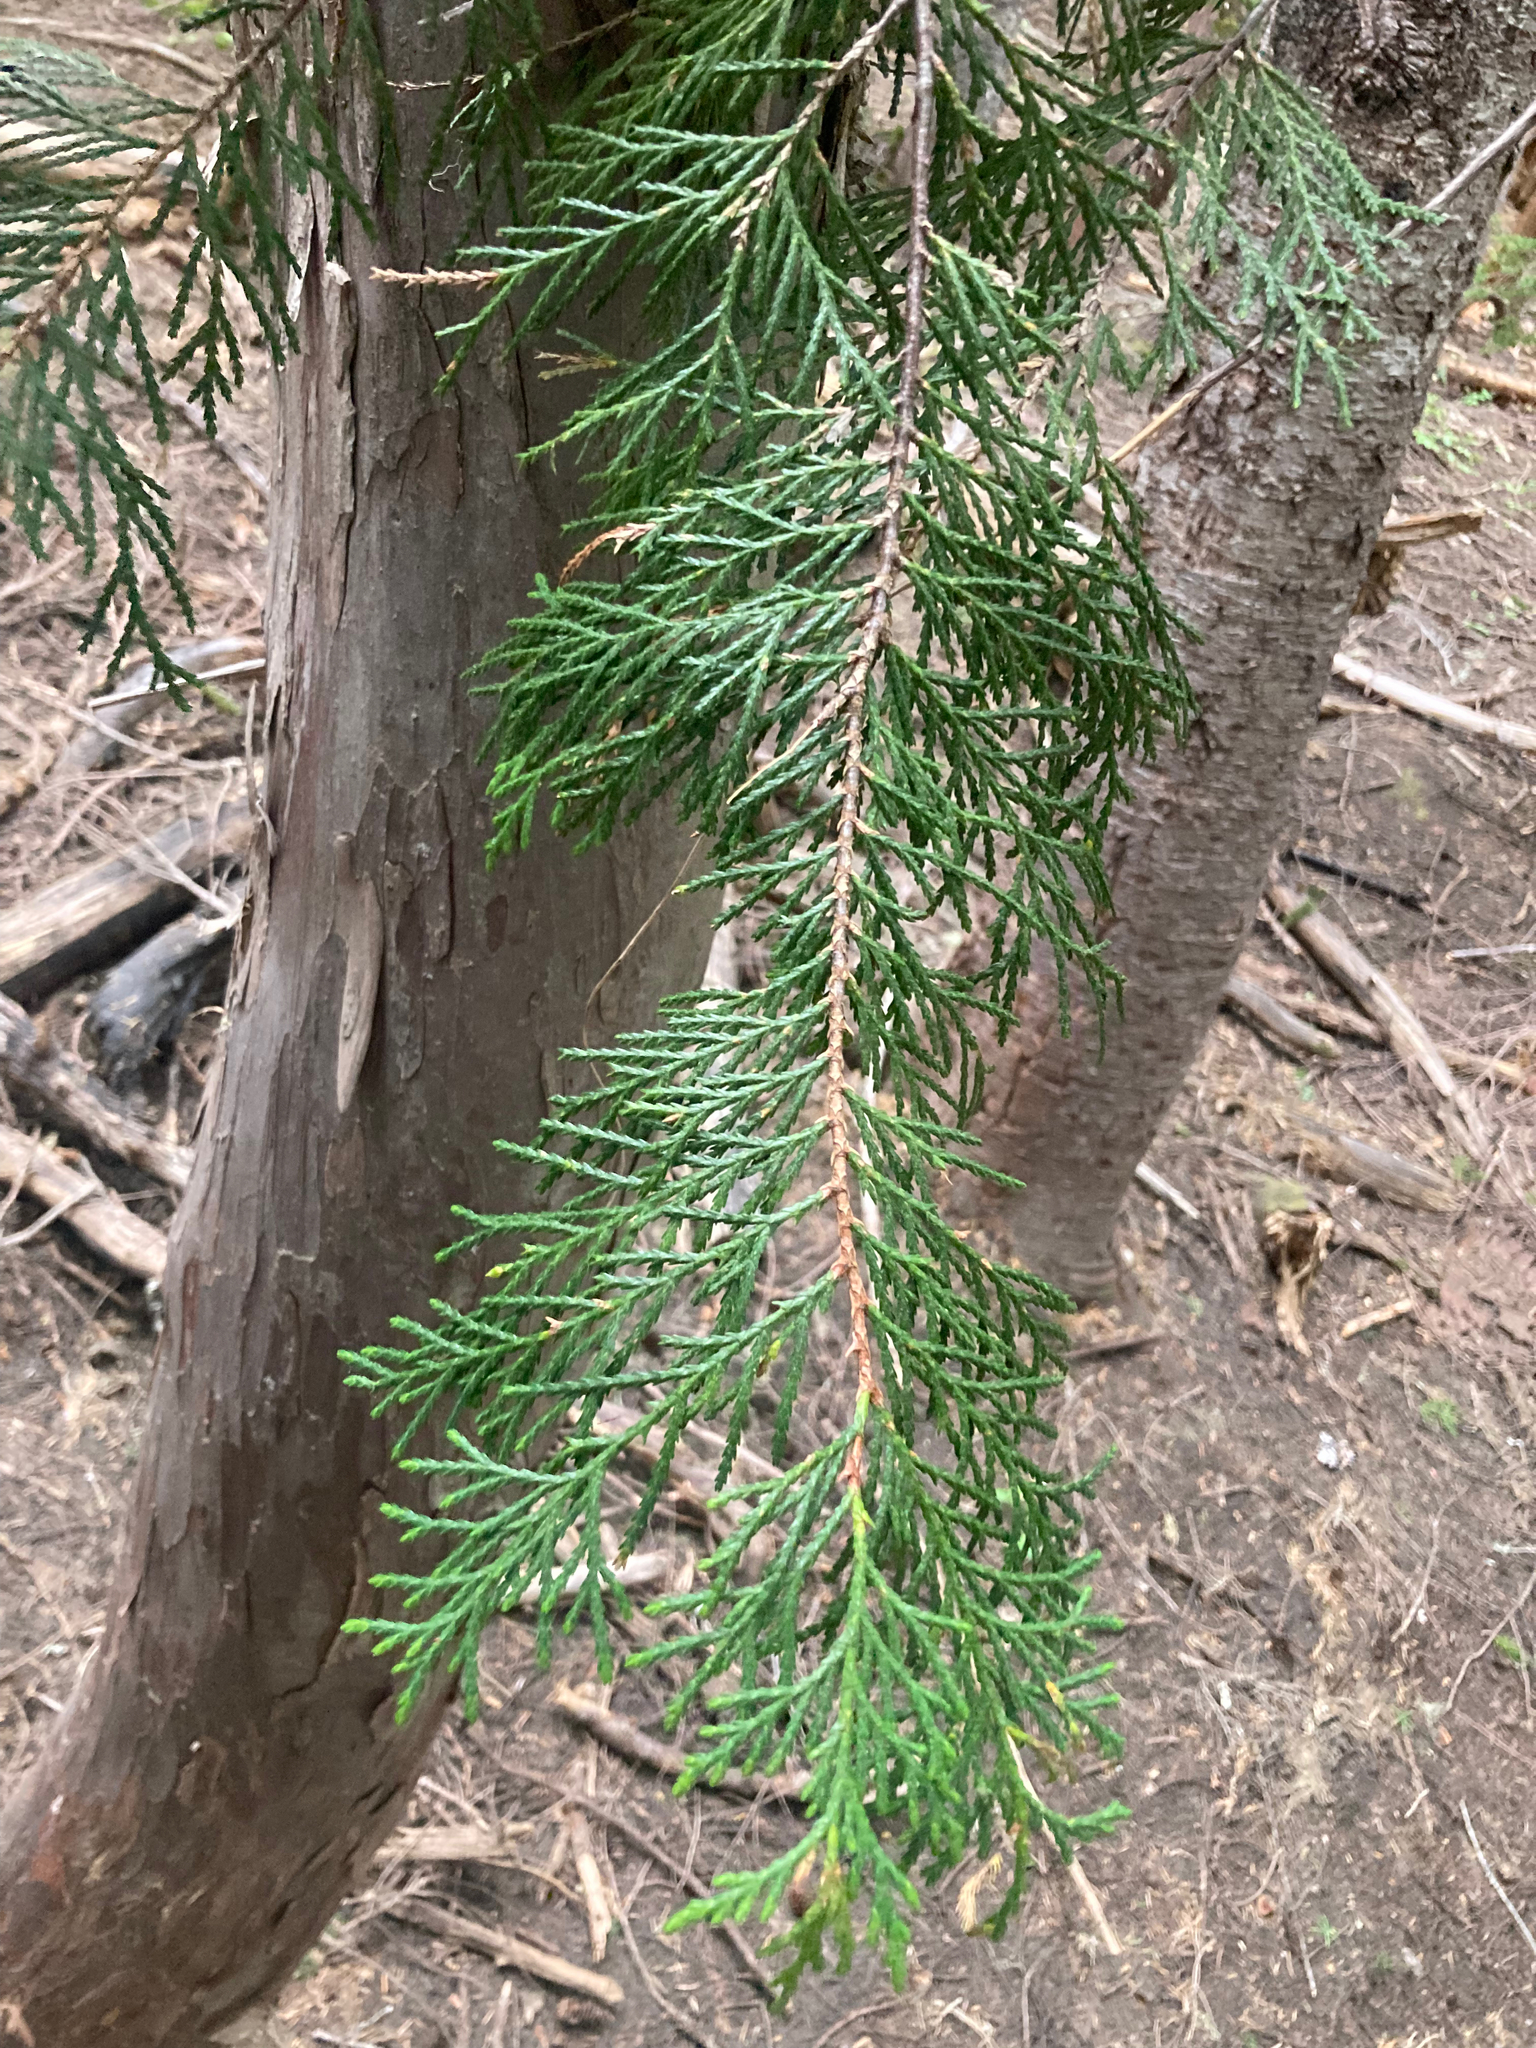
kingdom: Plantae
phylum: Tracheophyta
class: Pinopsida
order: Pinales
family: Cupressaceae
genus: Xanthocyparis
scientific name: Xanthocyparis nootkatensis
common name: Nootka cypress
